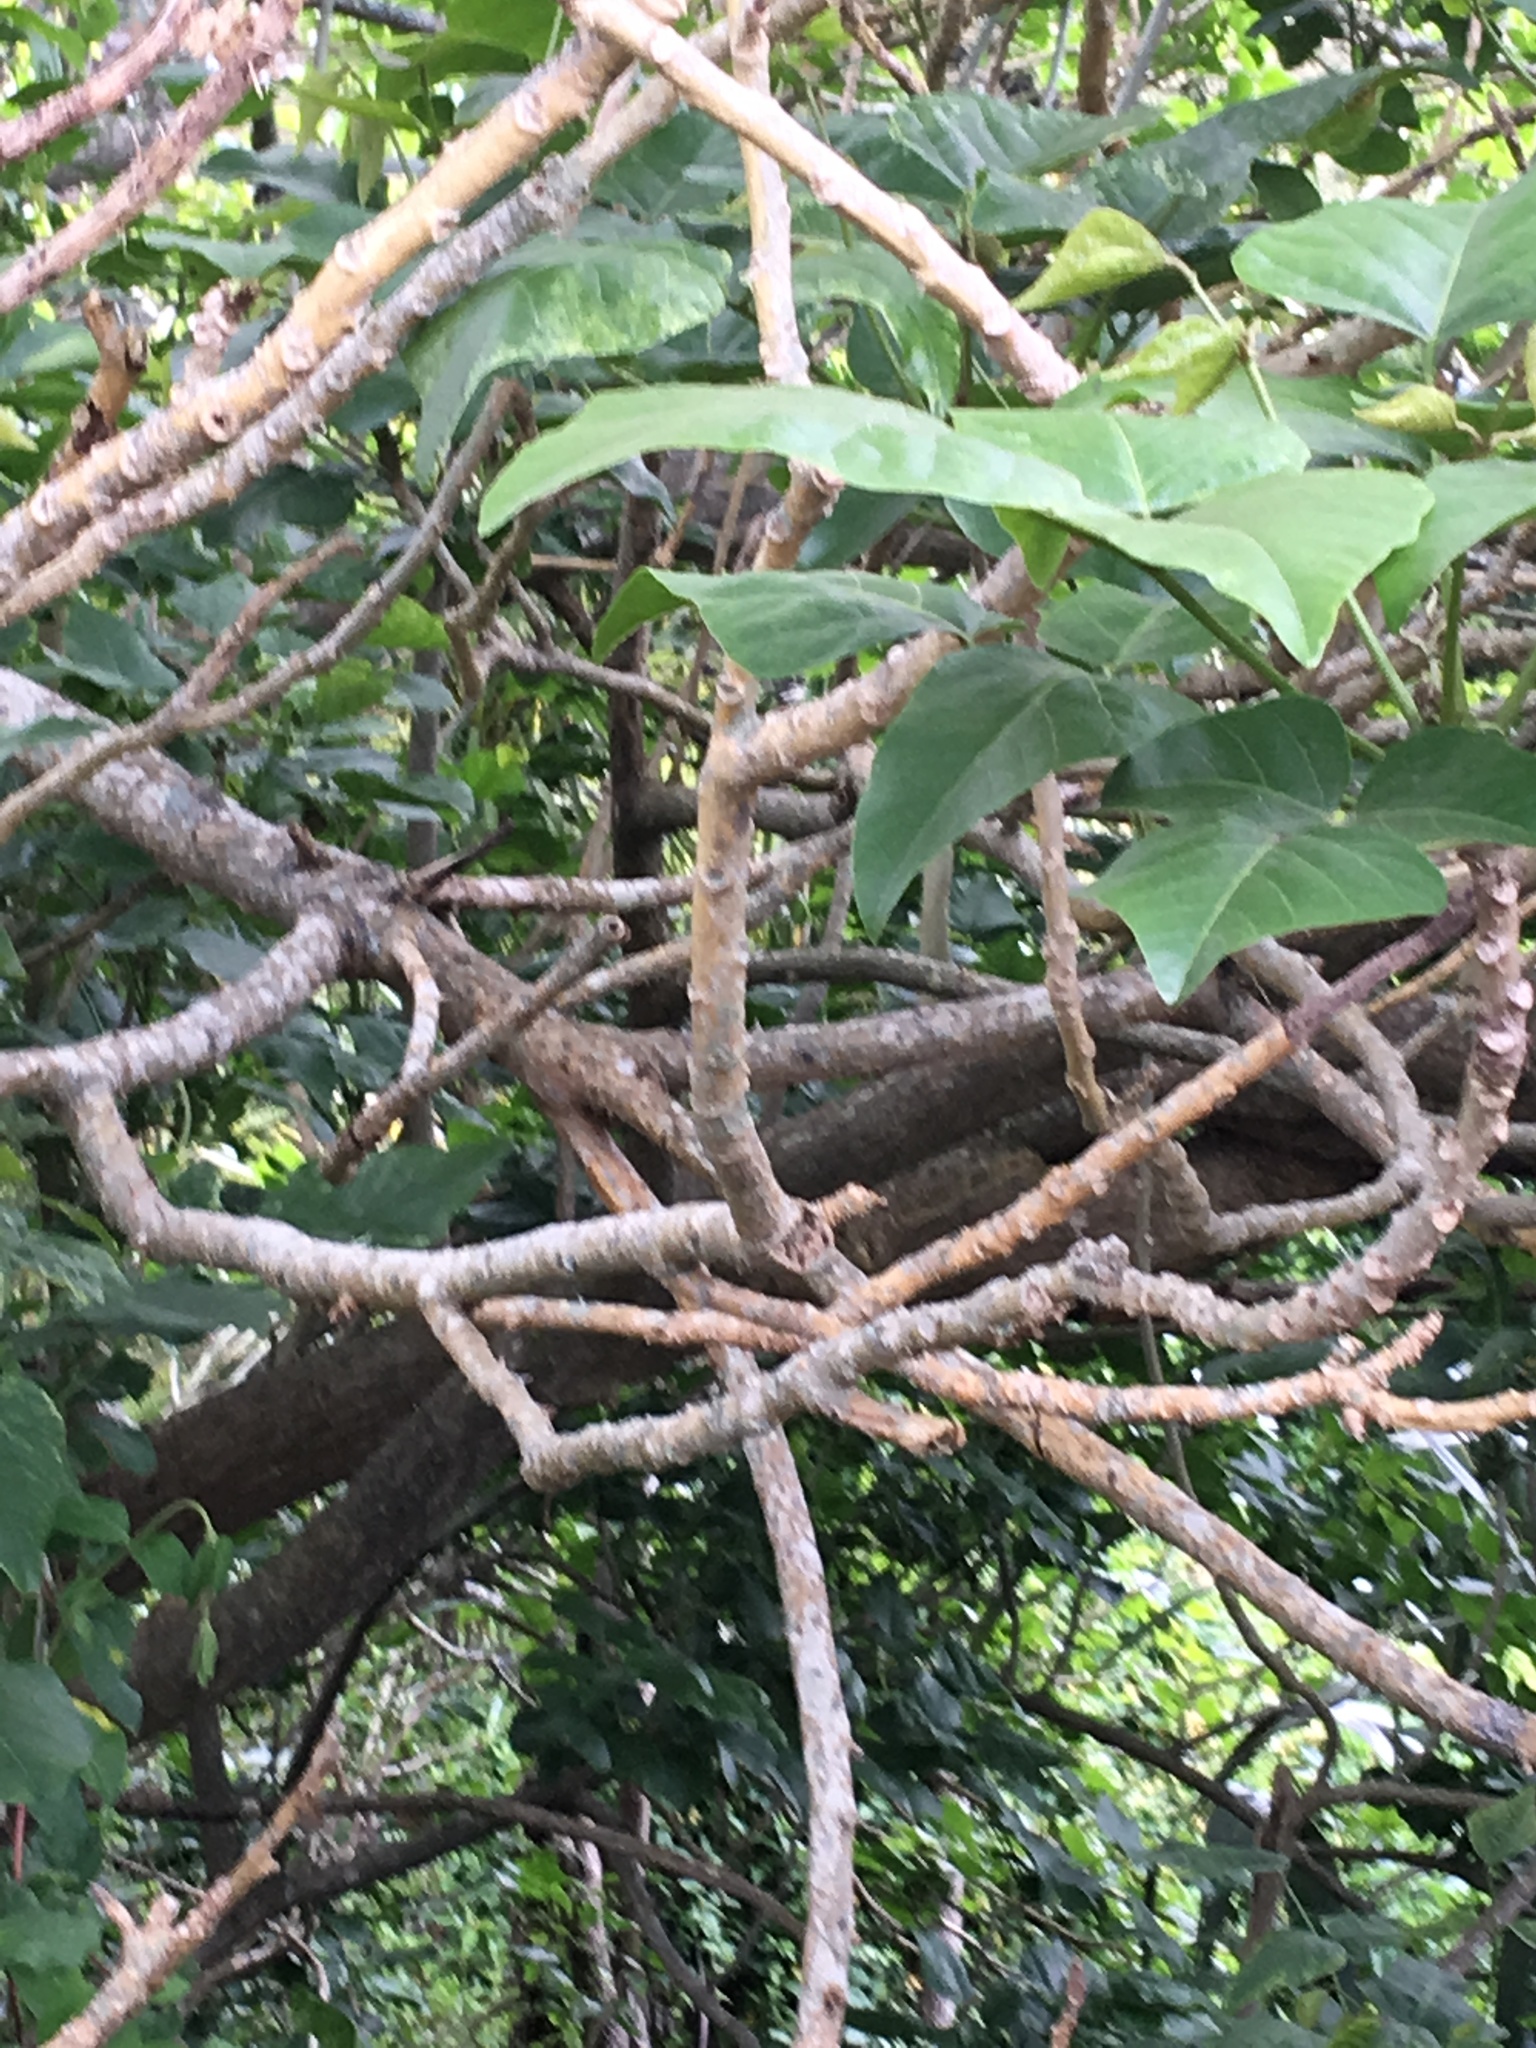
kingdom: Plantae
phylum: Tracheophyta
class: Magnoliopsida
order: Fabales
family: Fabaceae
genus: Erythrina
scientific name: Erythrina sykesii
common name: Coraltree
